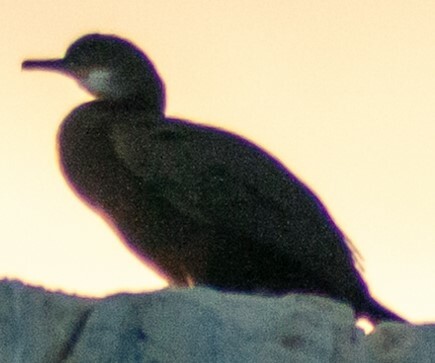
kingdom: Animalia
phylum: Chordata
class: Aves
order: Suliformes
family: Phalacrocoracidae
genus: Phalacrocorax
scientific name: Phalacrocorax aristotelis
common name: European shag
